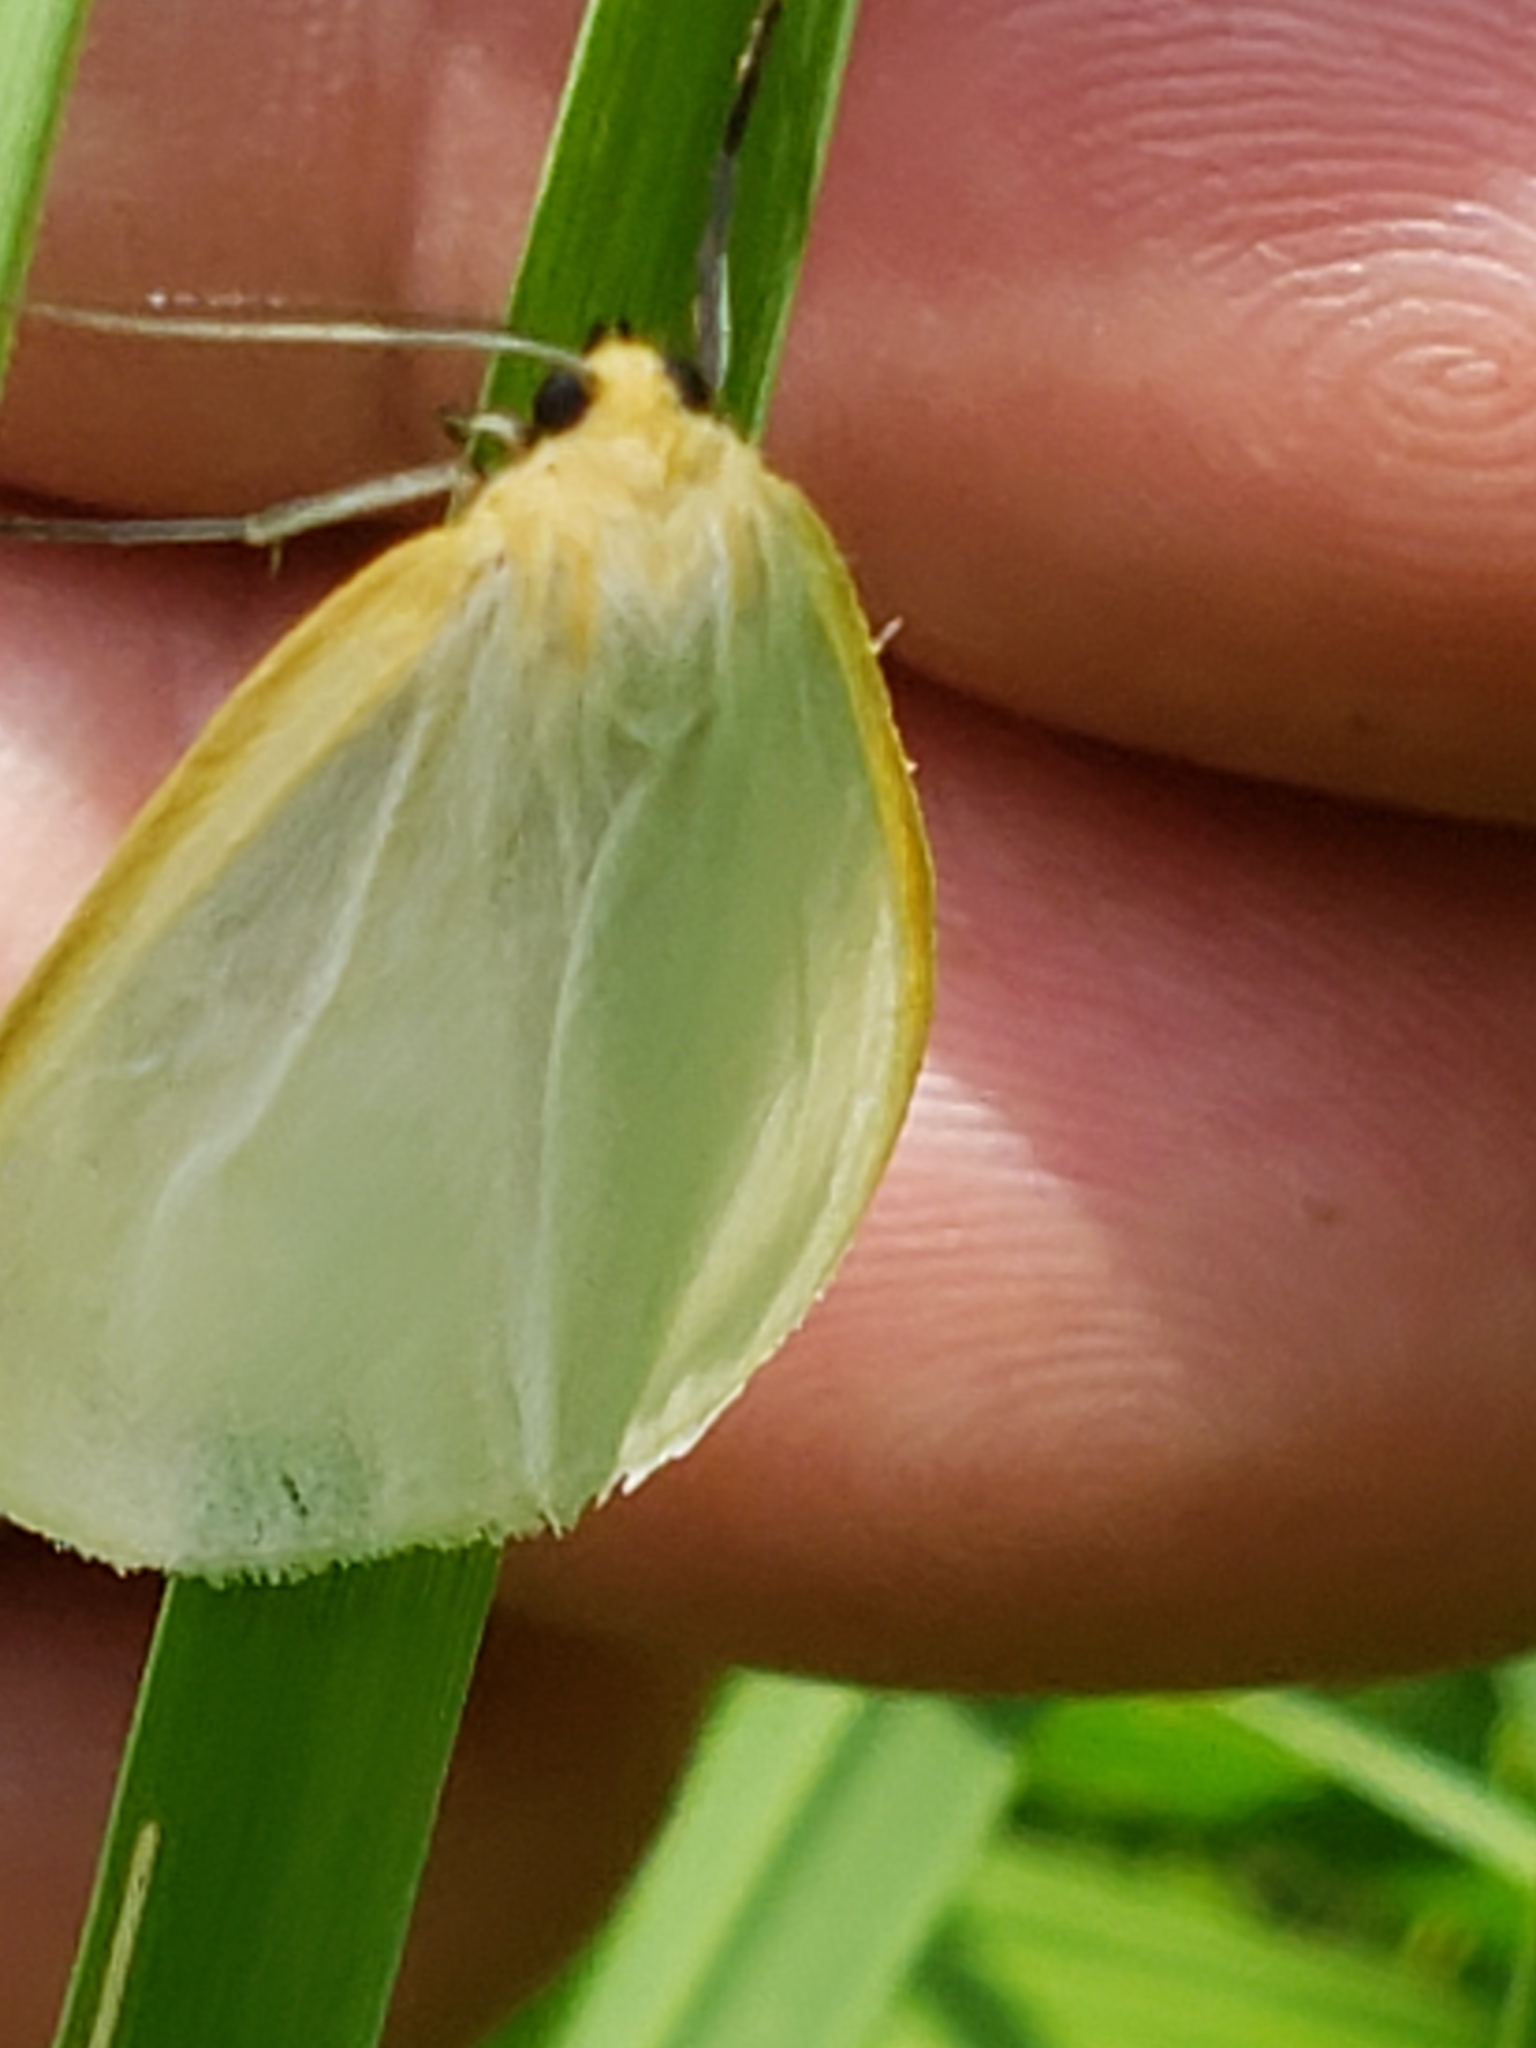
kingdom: Animalia
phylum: Arthropoda
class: Insecta
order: Lepidoptera
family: Erebidae
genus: Cycnia
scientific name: Cycnia tenera
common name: Delicate cycnia moth
